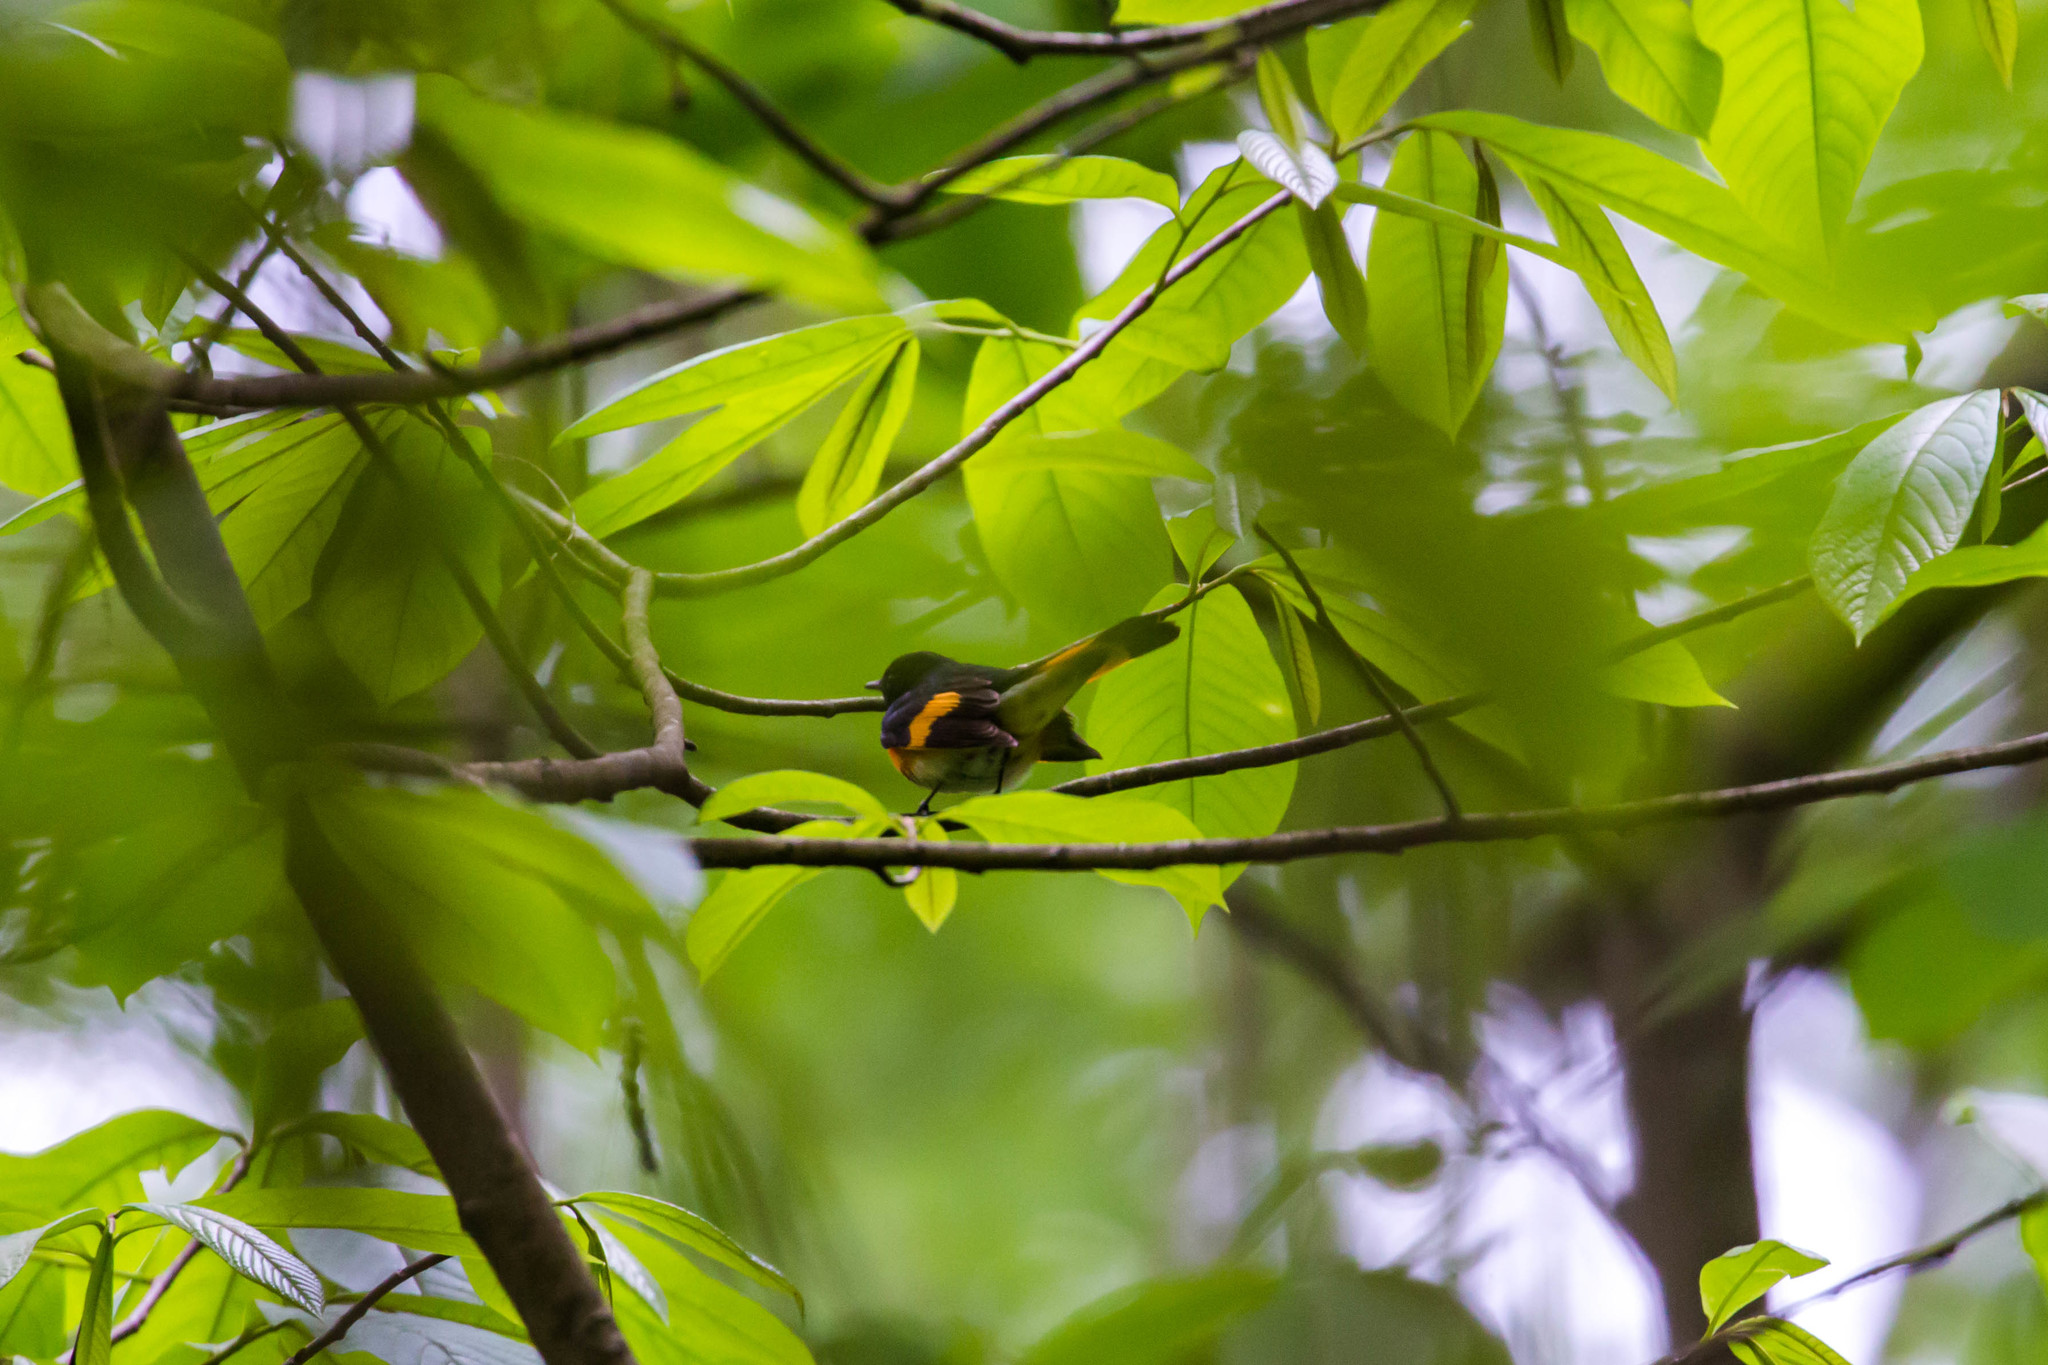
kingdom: Animalia
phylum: Chordata
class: Aves
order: Passeriformes
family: Parulidae
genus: Setophaga
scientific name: Setophaga ruticilla
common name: American redstart
